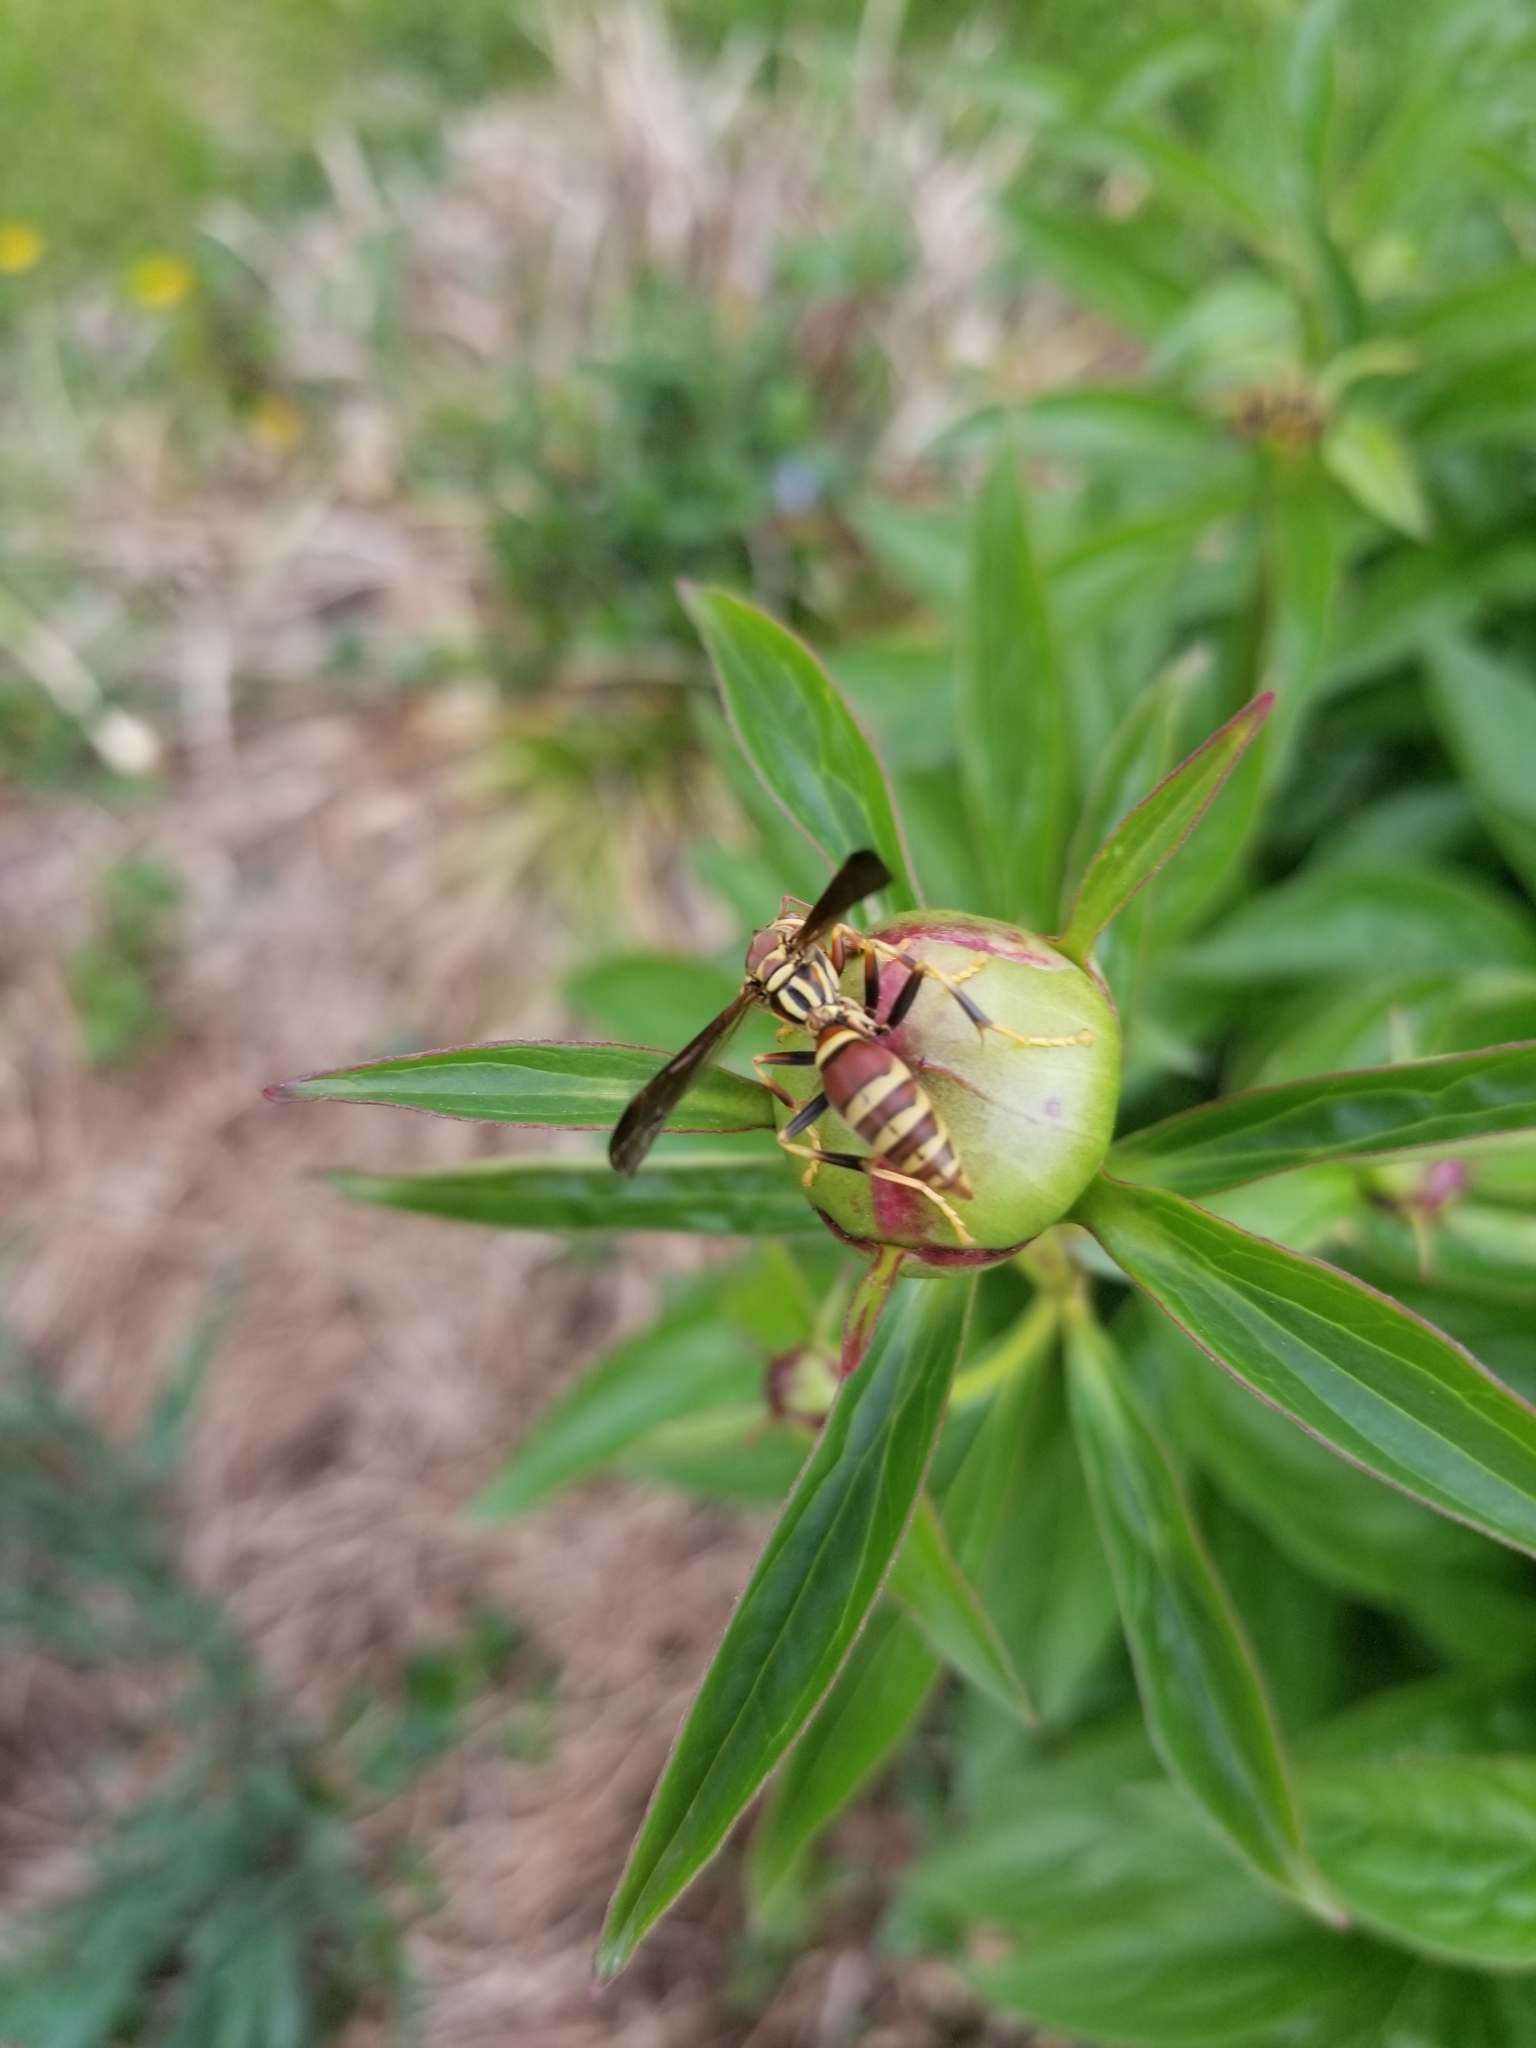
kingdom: Animalia
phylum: Arthropoda
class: Insecta
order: Hymenoptera
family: Eumenidae
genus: Polistes
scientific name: Polistes exclamans
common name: Paper wasp
